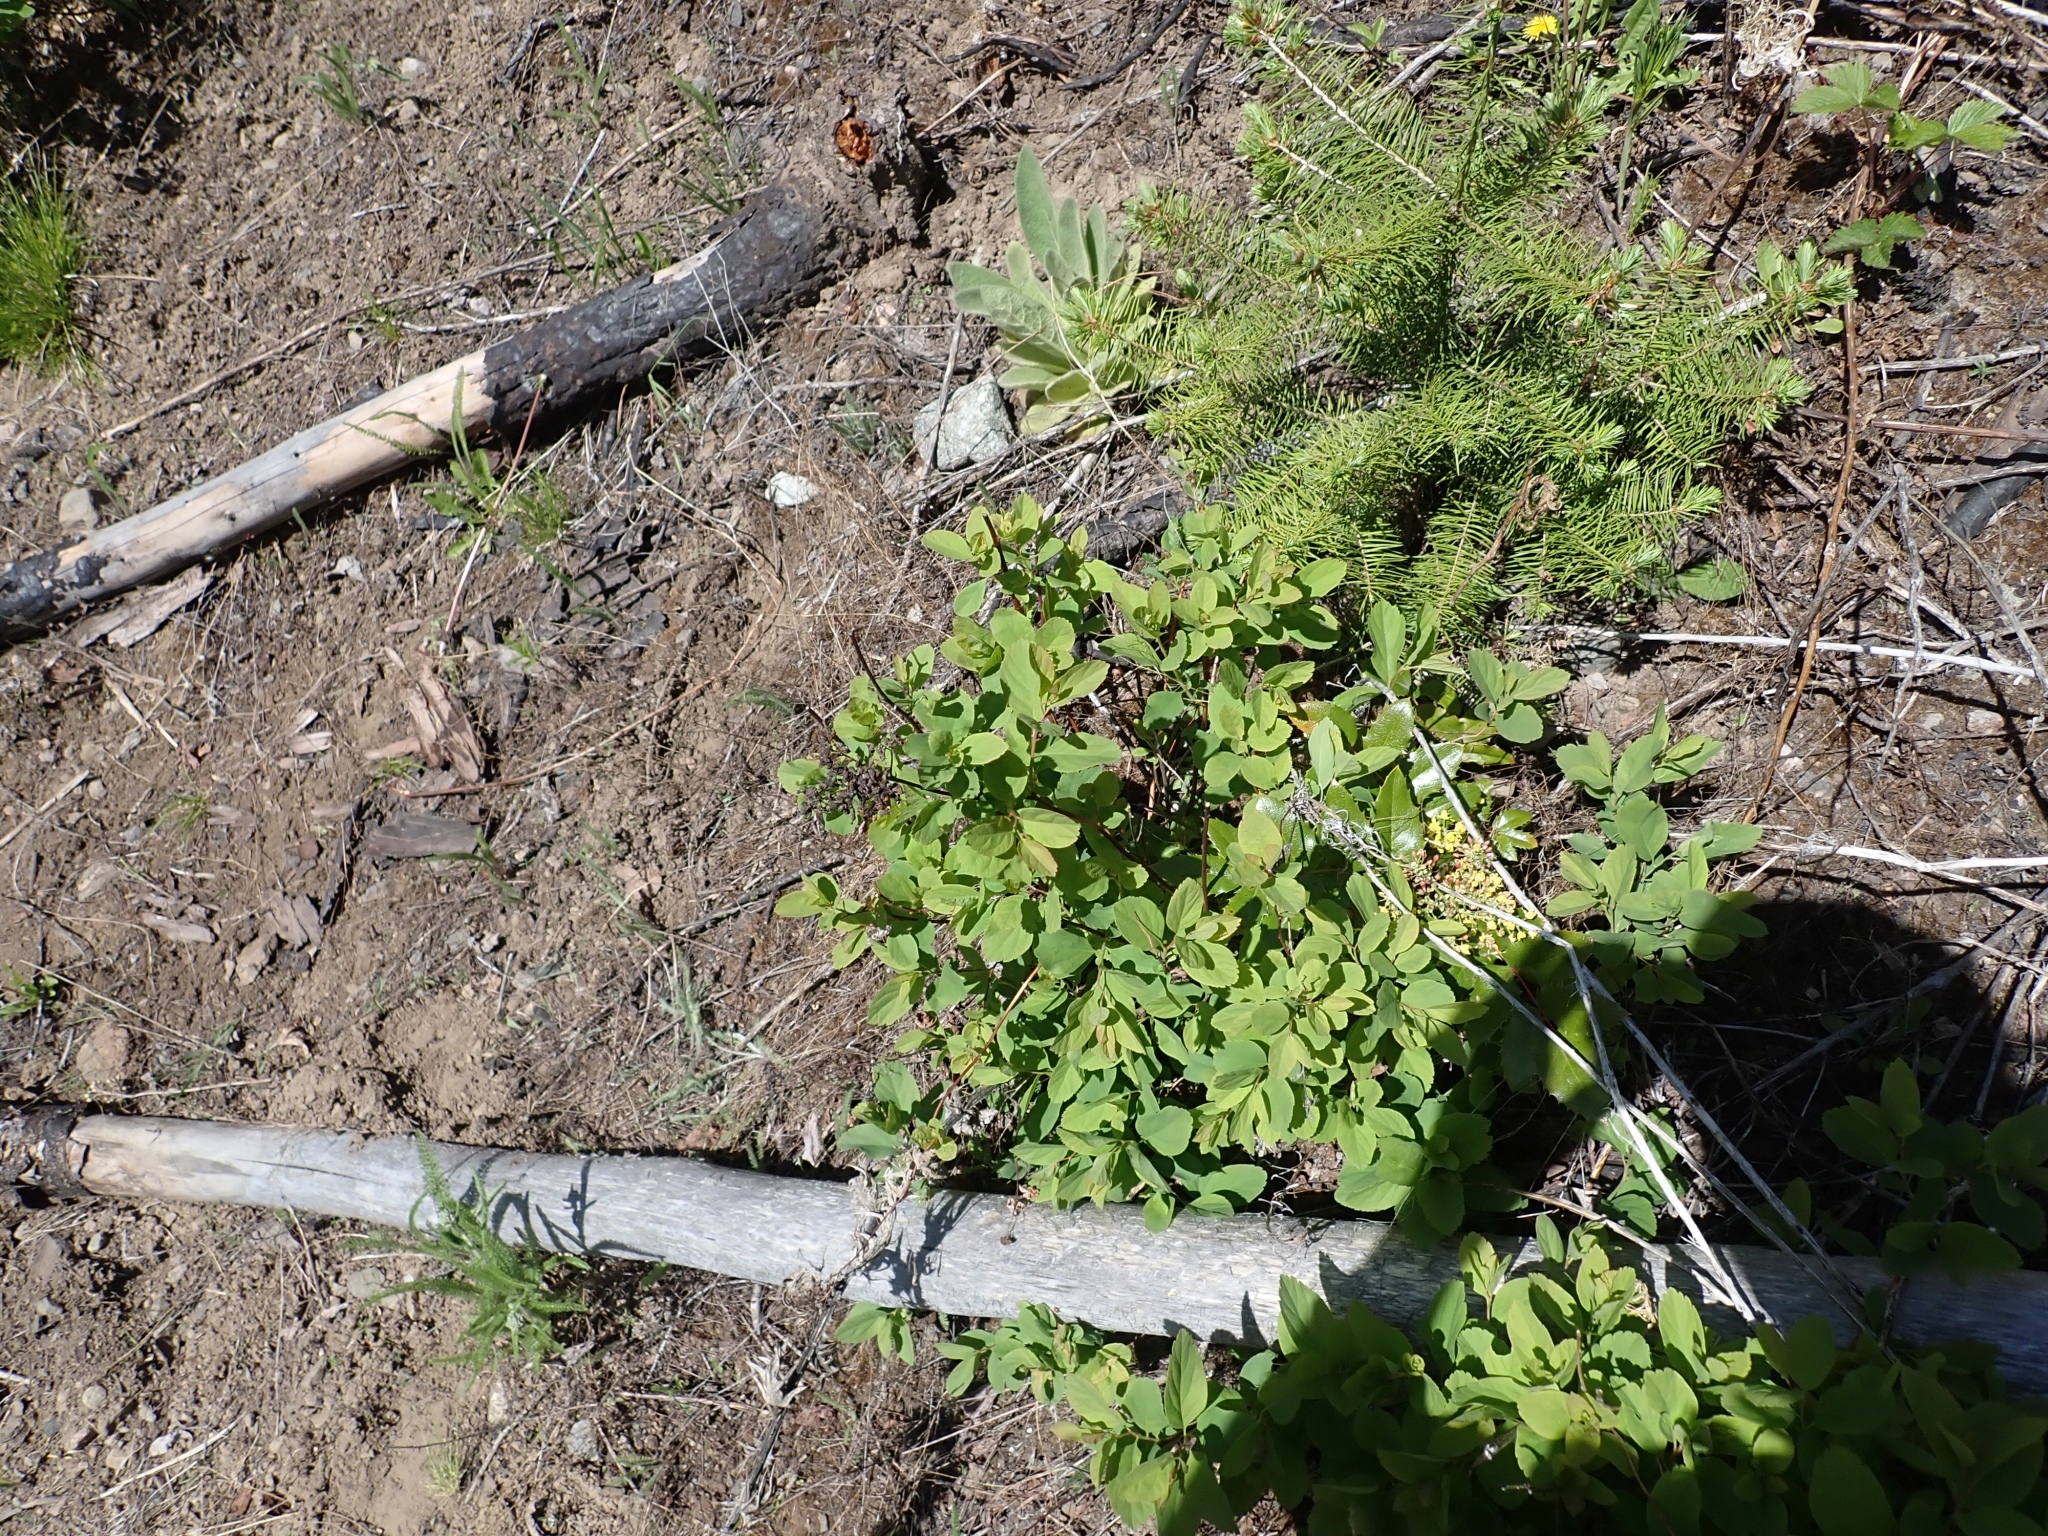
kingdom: Plantae
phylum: Tracheophyta
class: Magnoliopsida
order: Rosales
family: Rosaceae
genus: Spiraea
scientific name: Spiraea lucida
